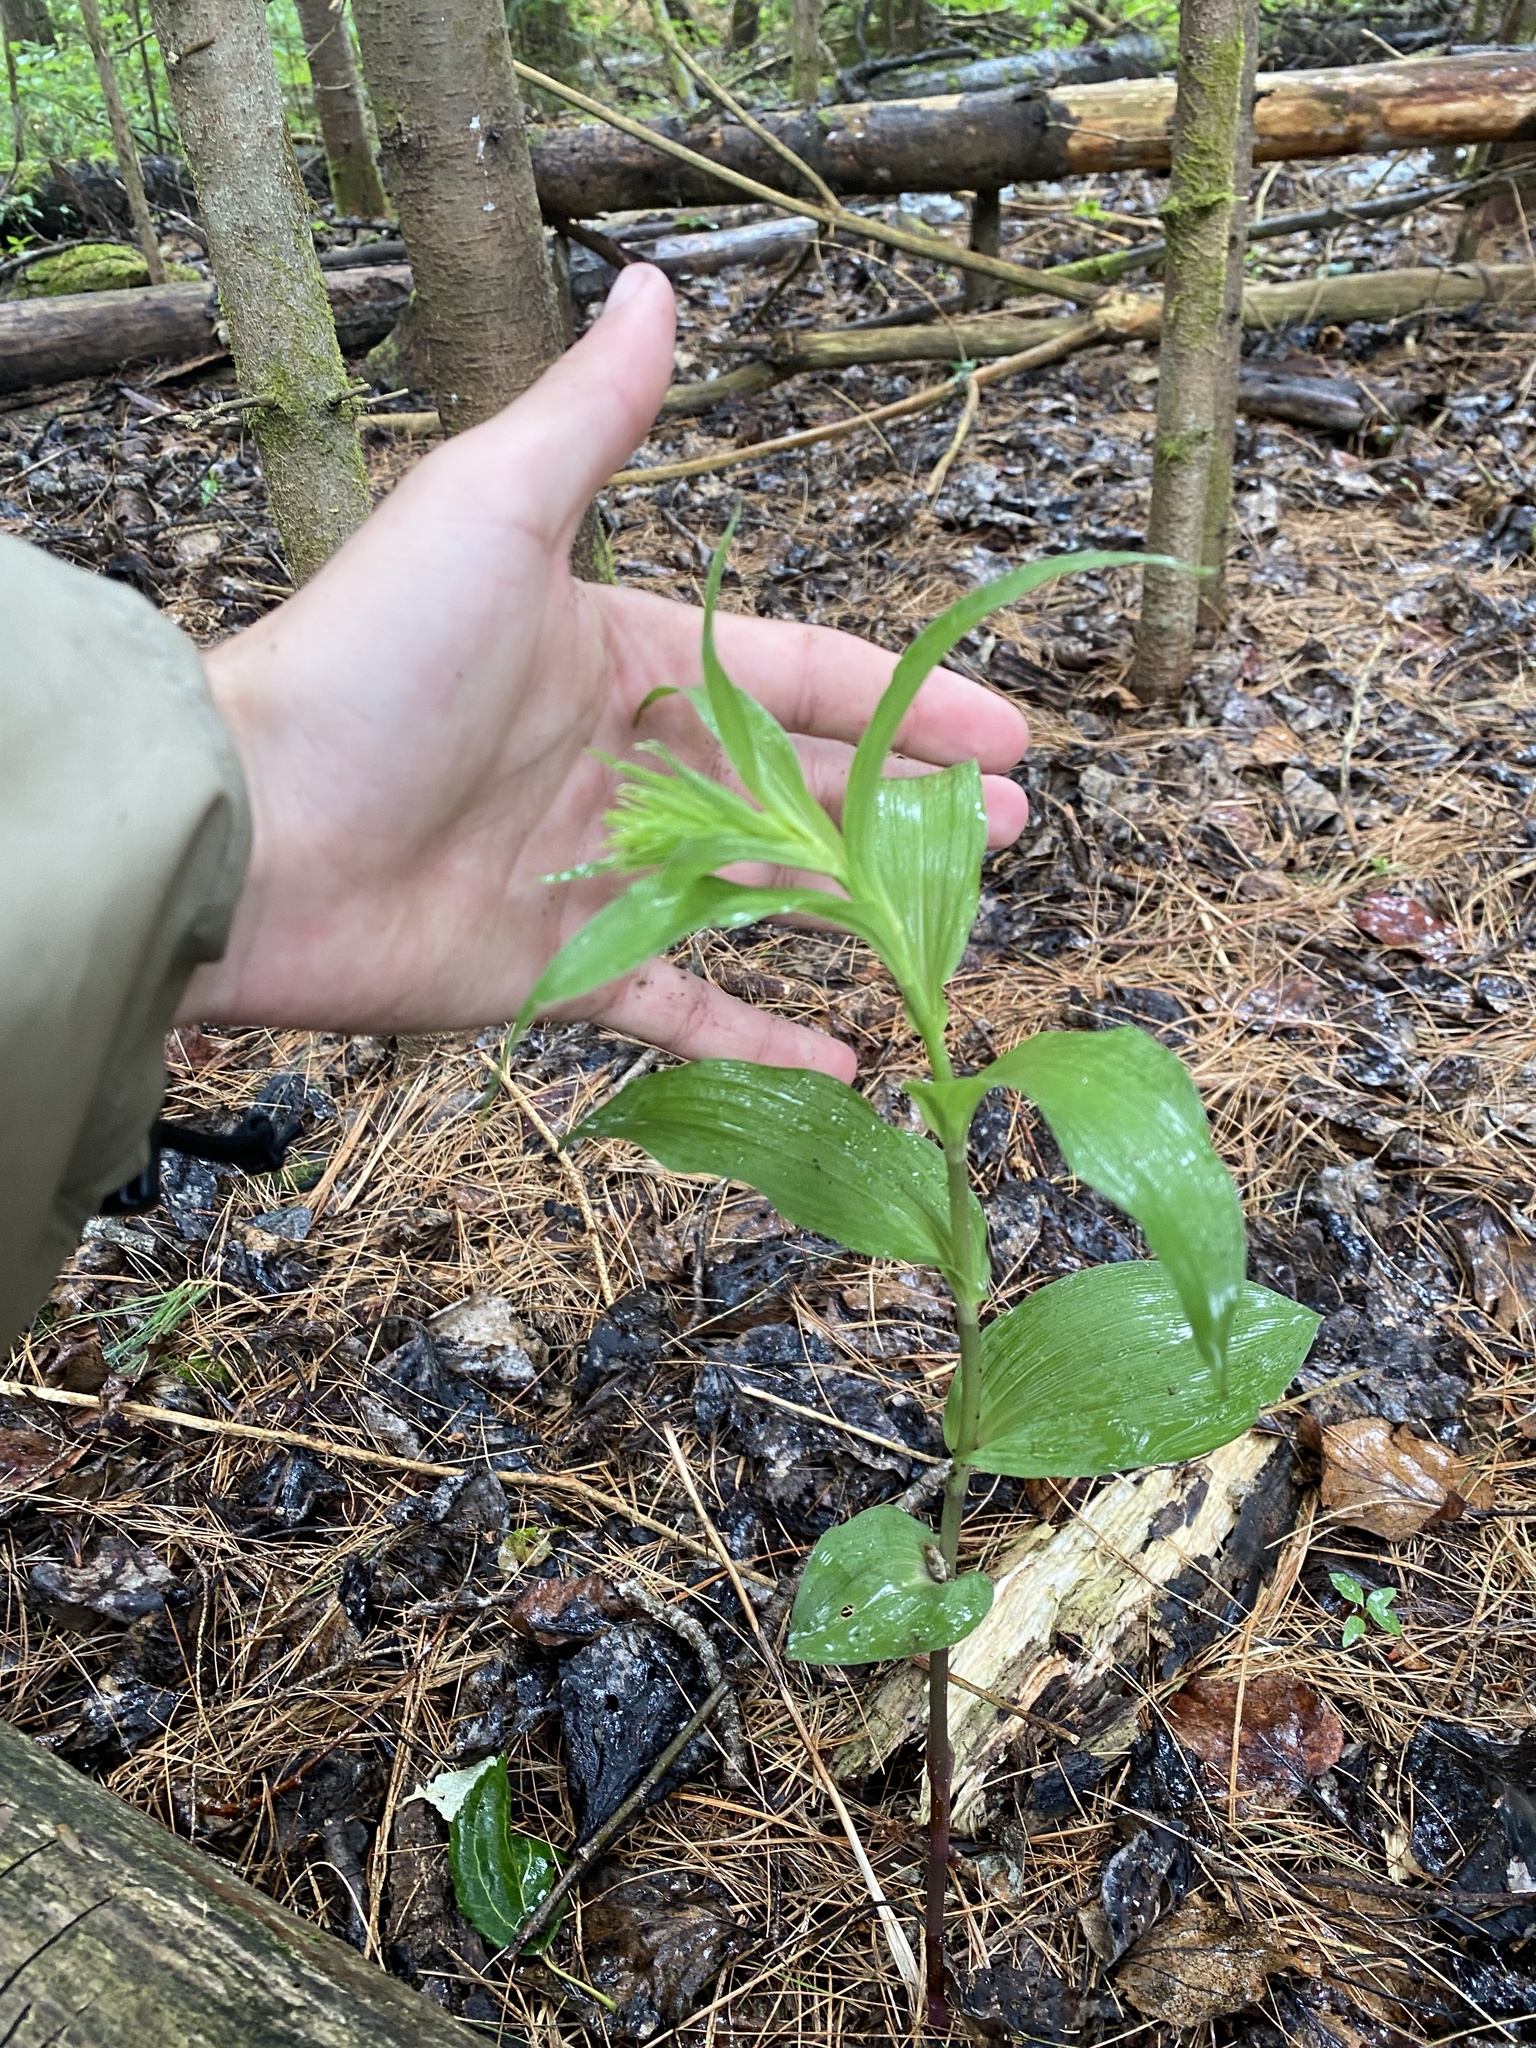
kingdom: Plantae
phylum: Tracheophyta
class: Liliopsida
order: Asparagales
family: Orchidaceae
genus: Epipactis
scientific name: Epipactis helleborine
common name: Broad-leaved helleborine
